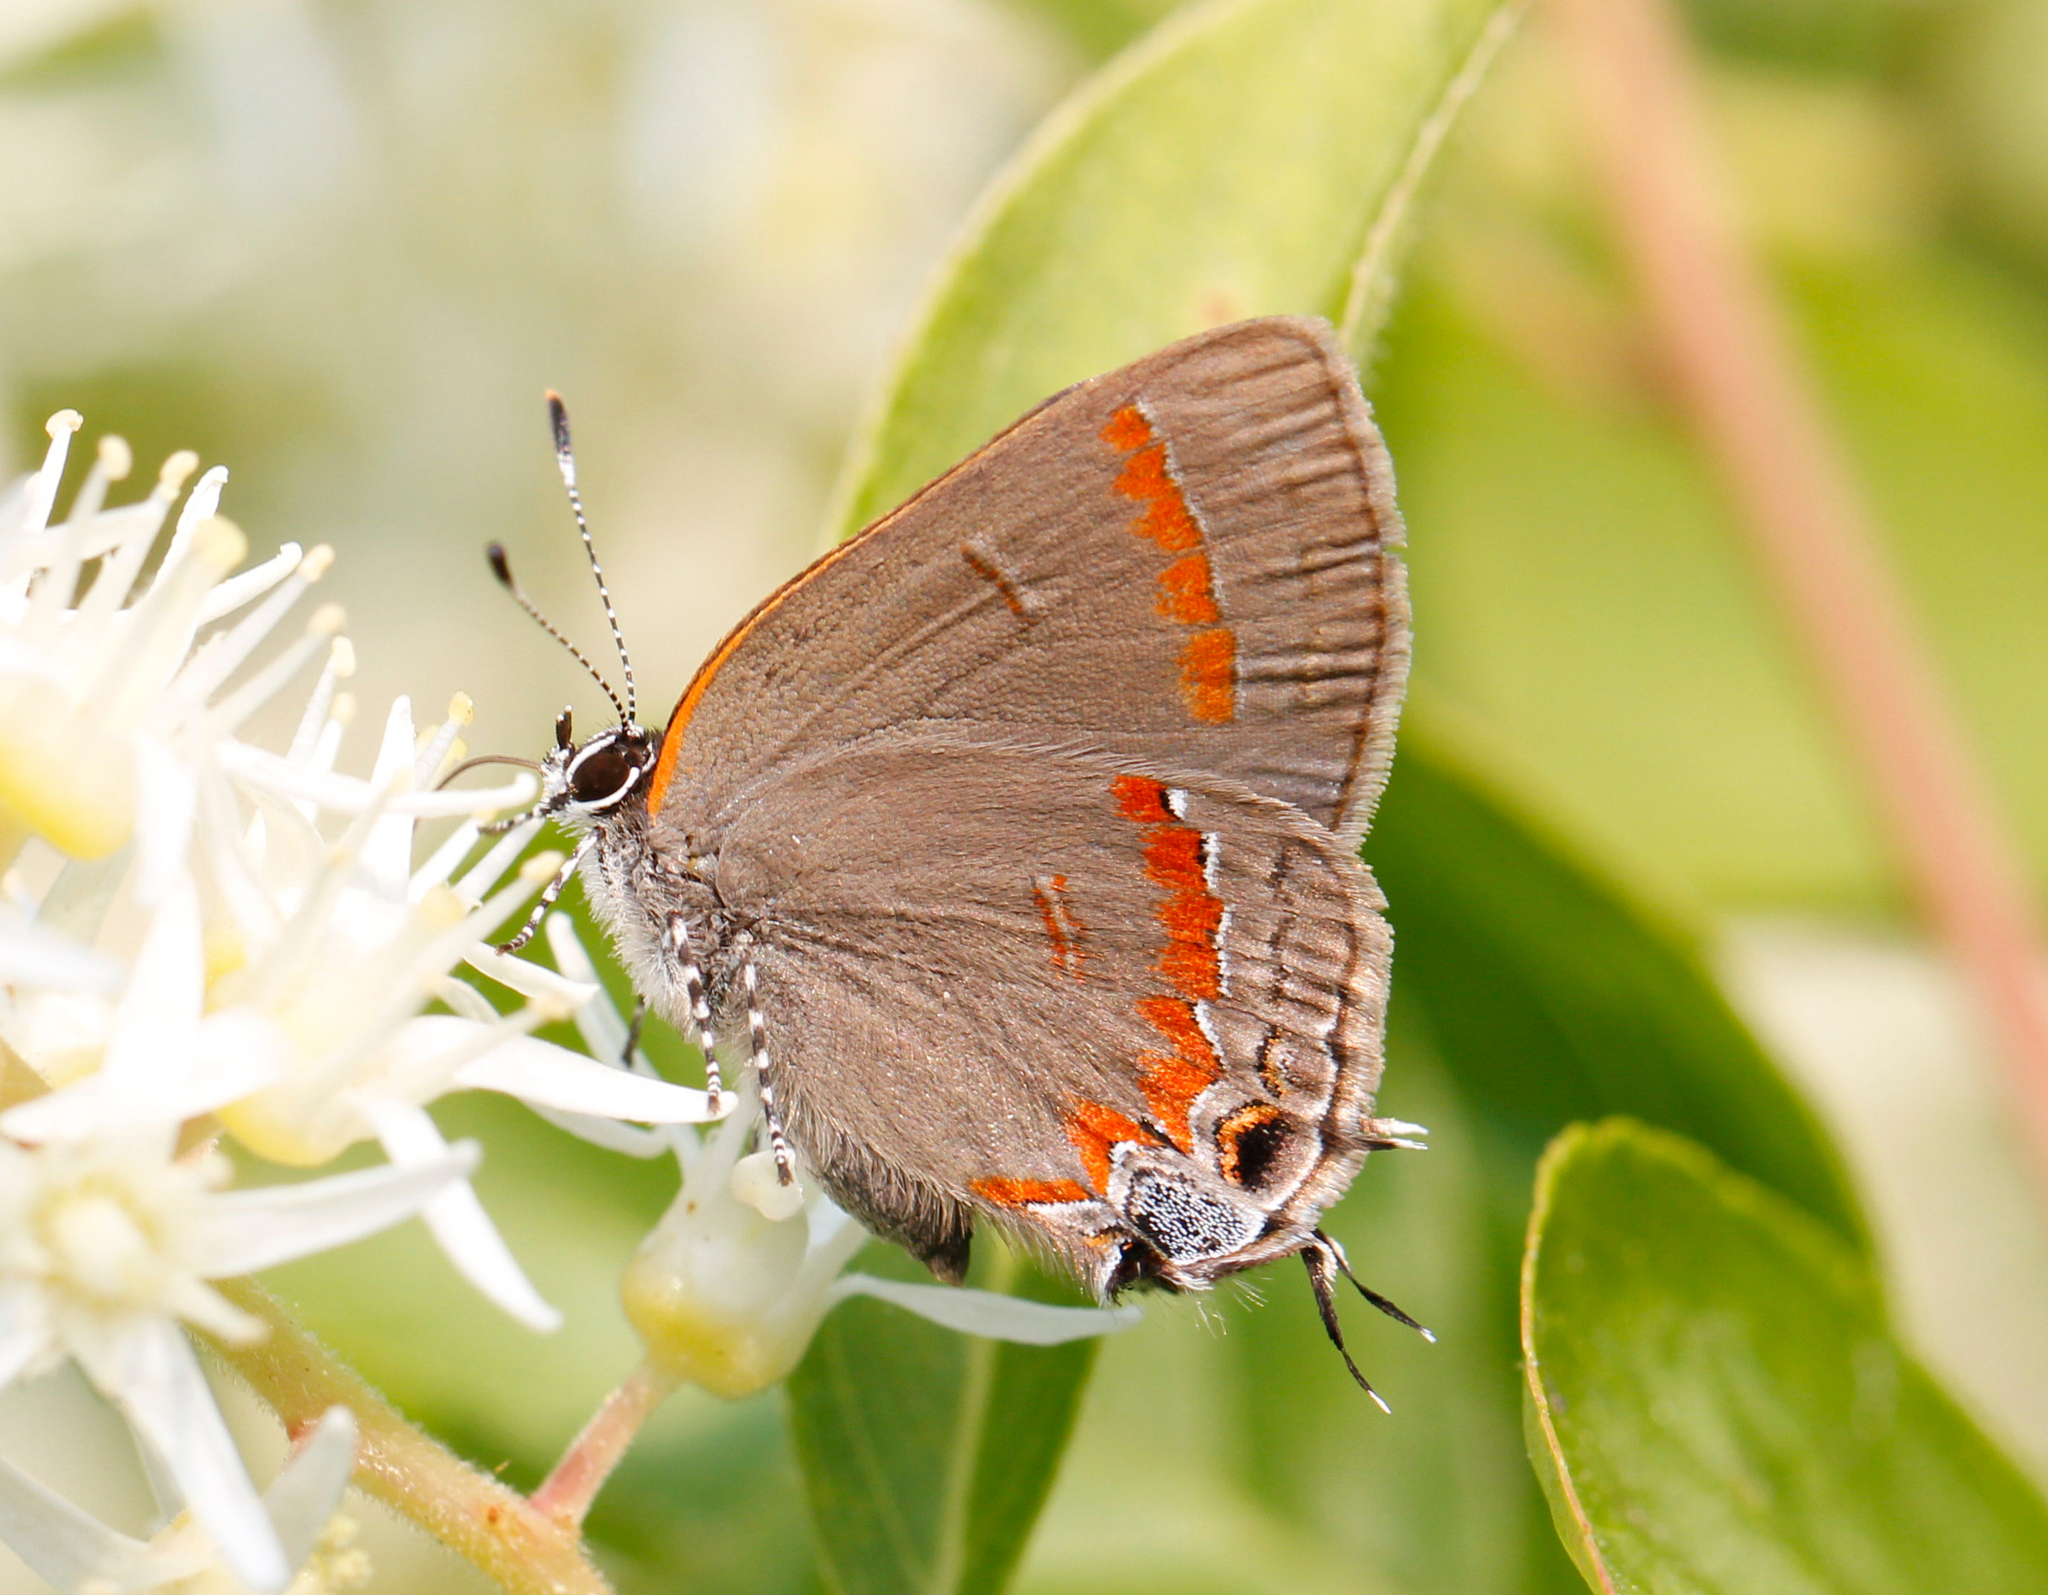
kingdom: Animalia
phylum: Arthropoda
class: Insecta
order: Lepidoptera
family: Lycaenidae
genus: Calycopis
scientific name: Calycopis cecrops
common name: Red-banded hairstreak
